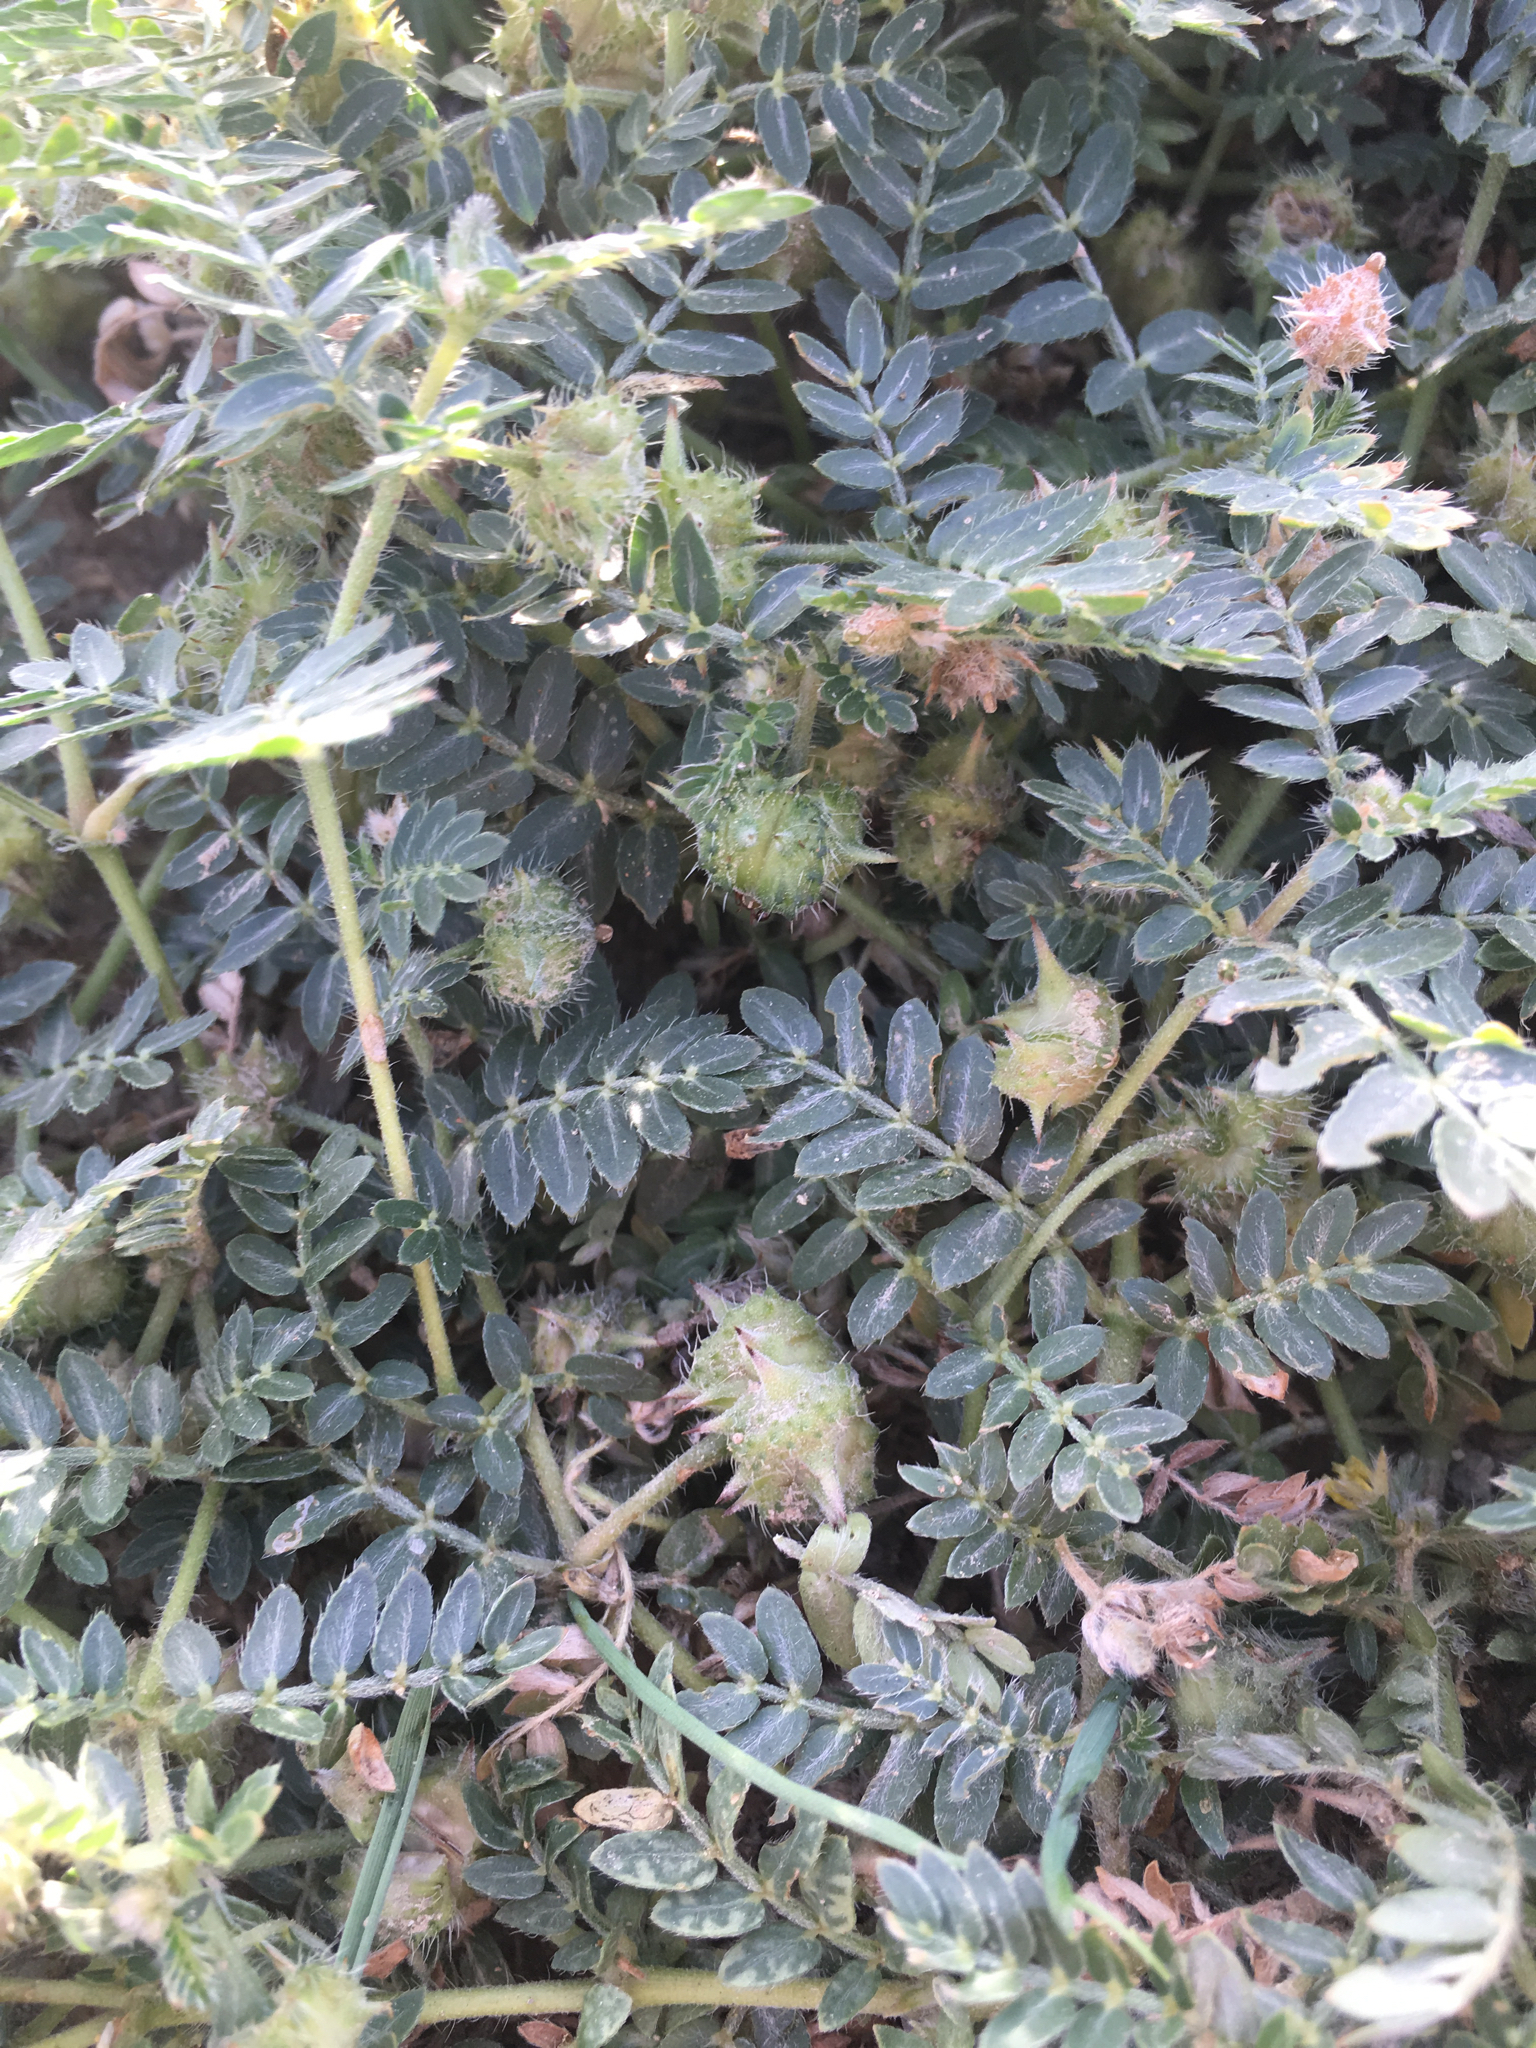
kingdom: Plantae
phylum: Tracheophyta
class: Magnoliopsida
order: Zygophyllales
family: Zygophyllaceae
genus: Tribulus
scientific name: Tribulus terrestris
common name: Puncturevine
